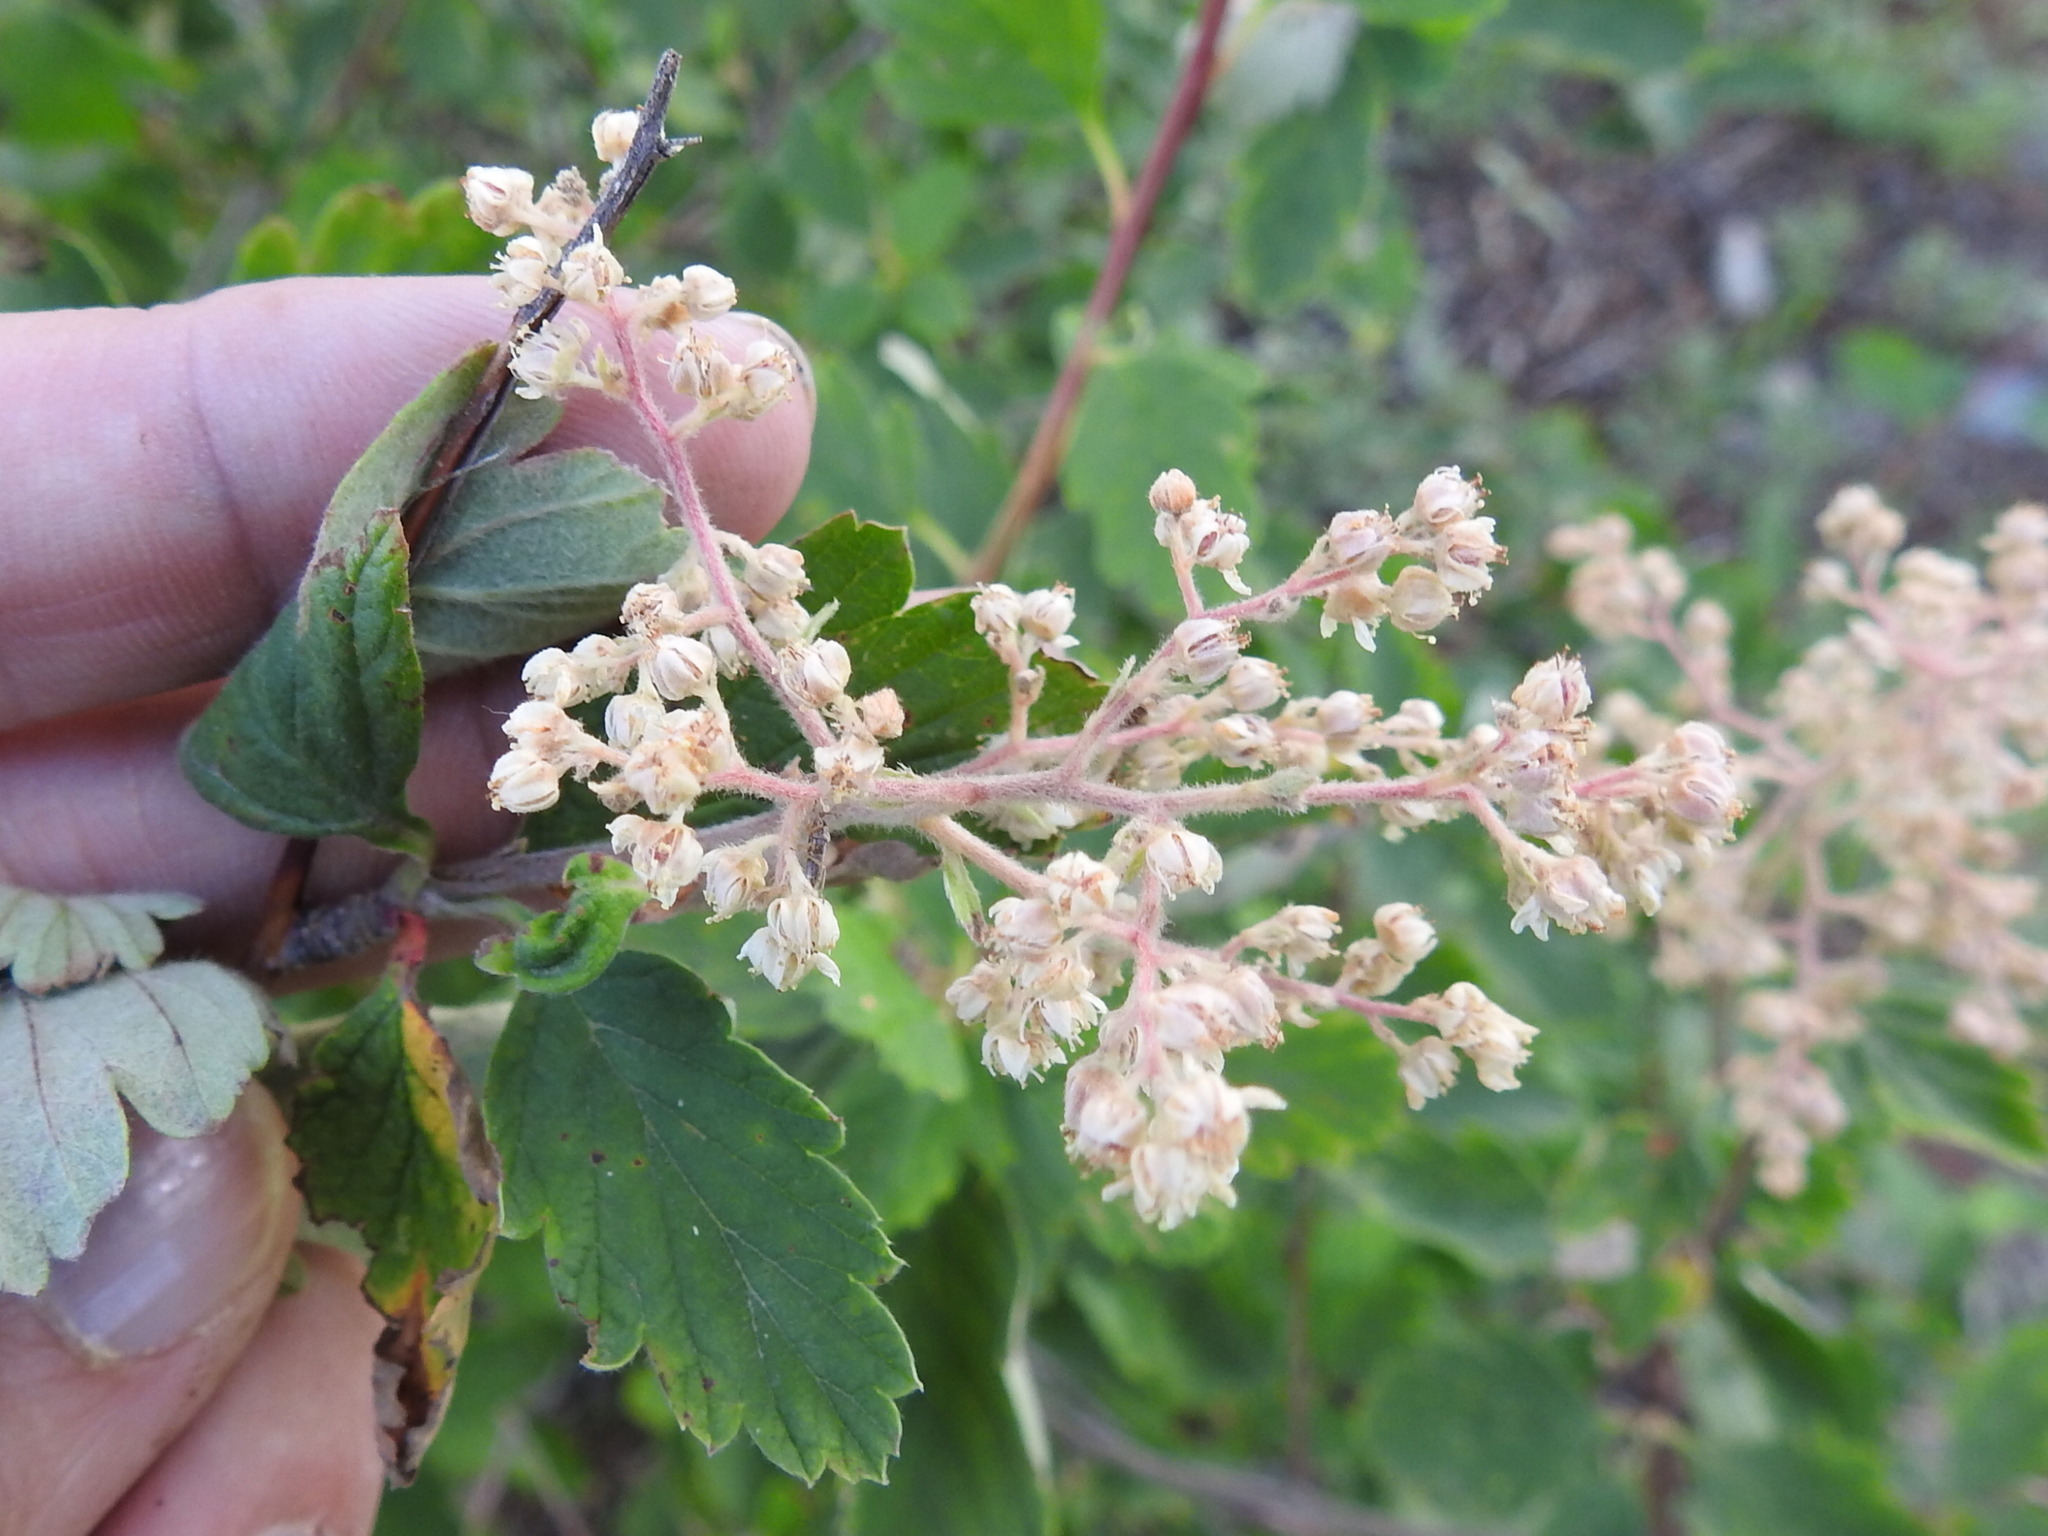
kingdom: Plantae
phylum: Tracheophyta
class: Magnoliopsida
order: Rosales
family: Rosaceae
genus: Holodiscus
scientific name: Holodiscus discolor
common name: Oceanspray
